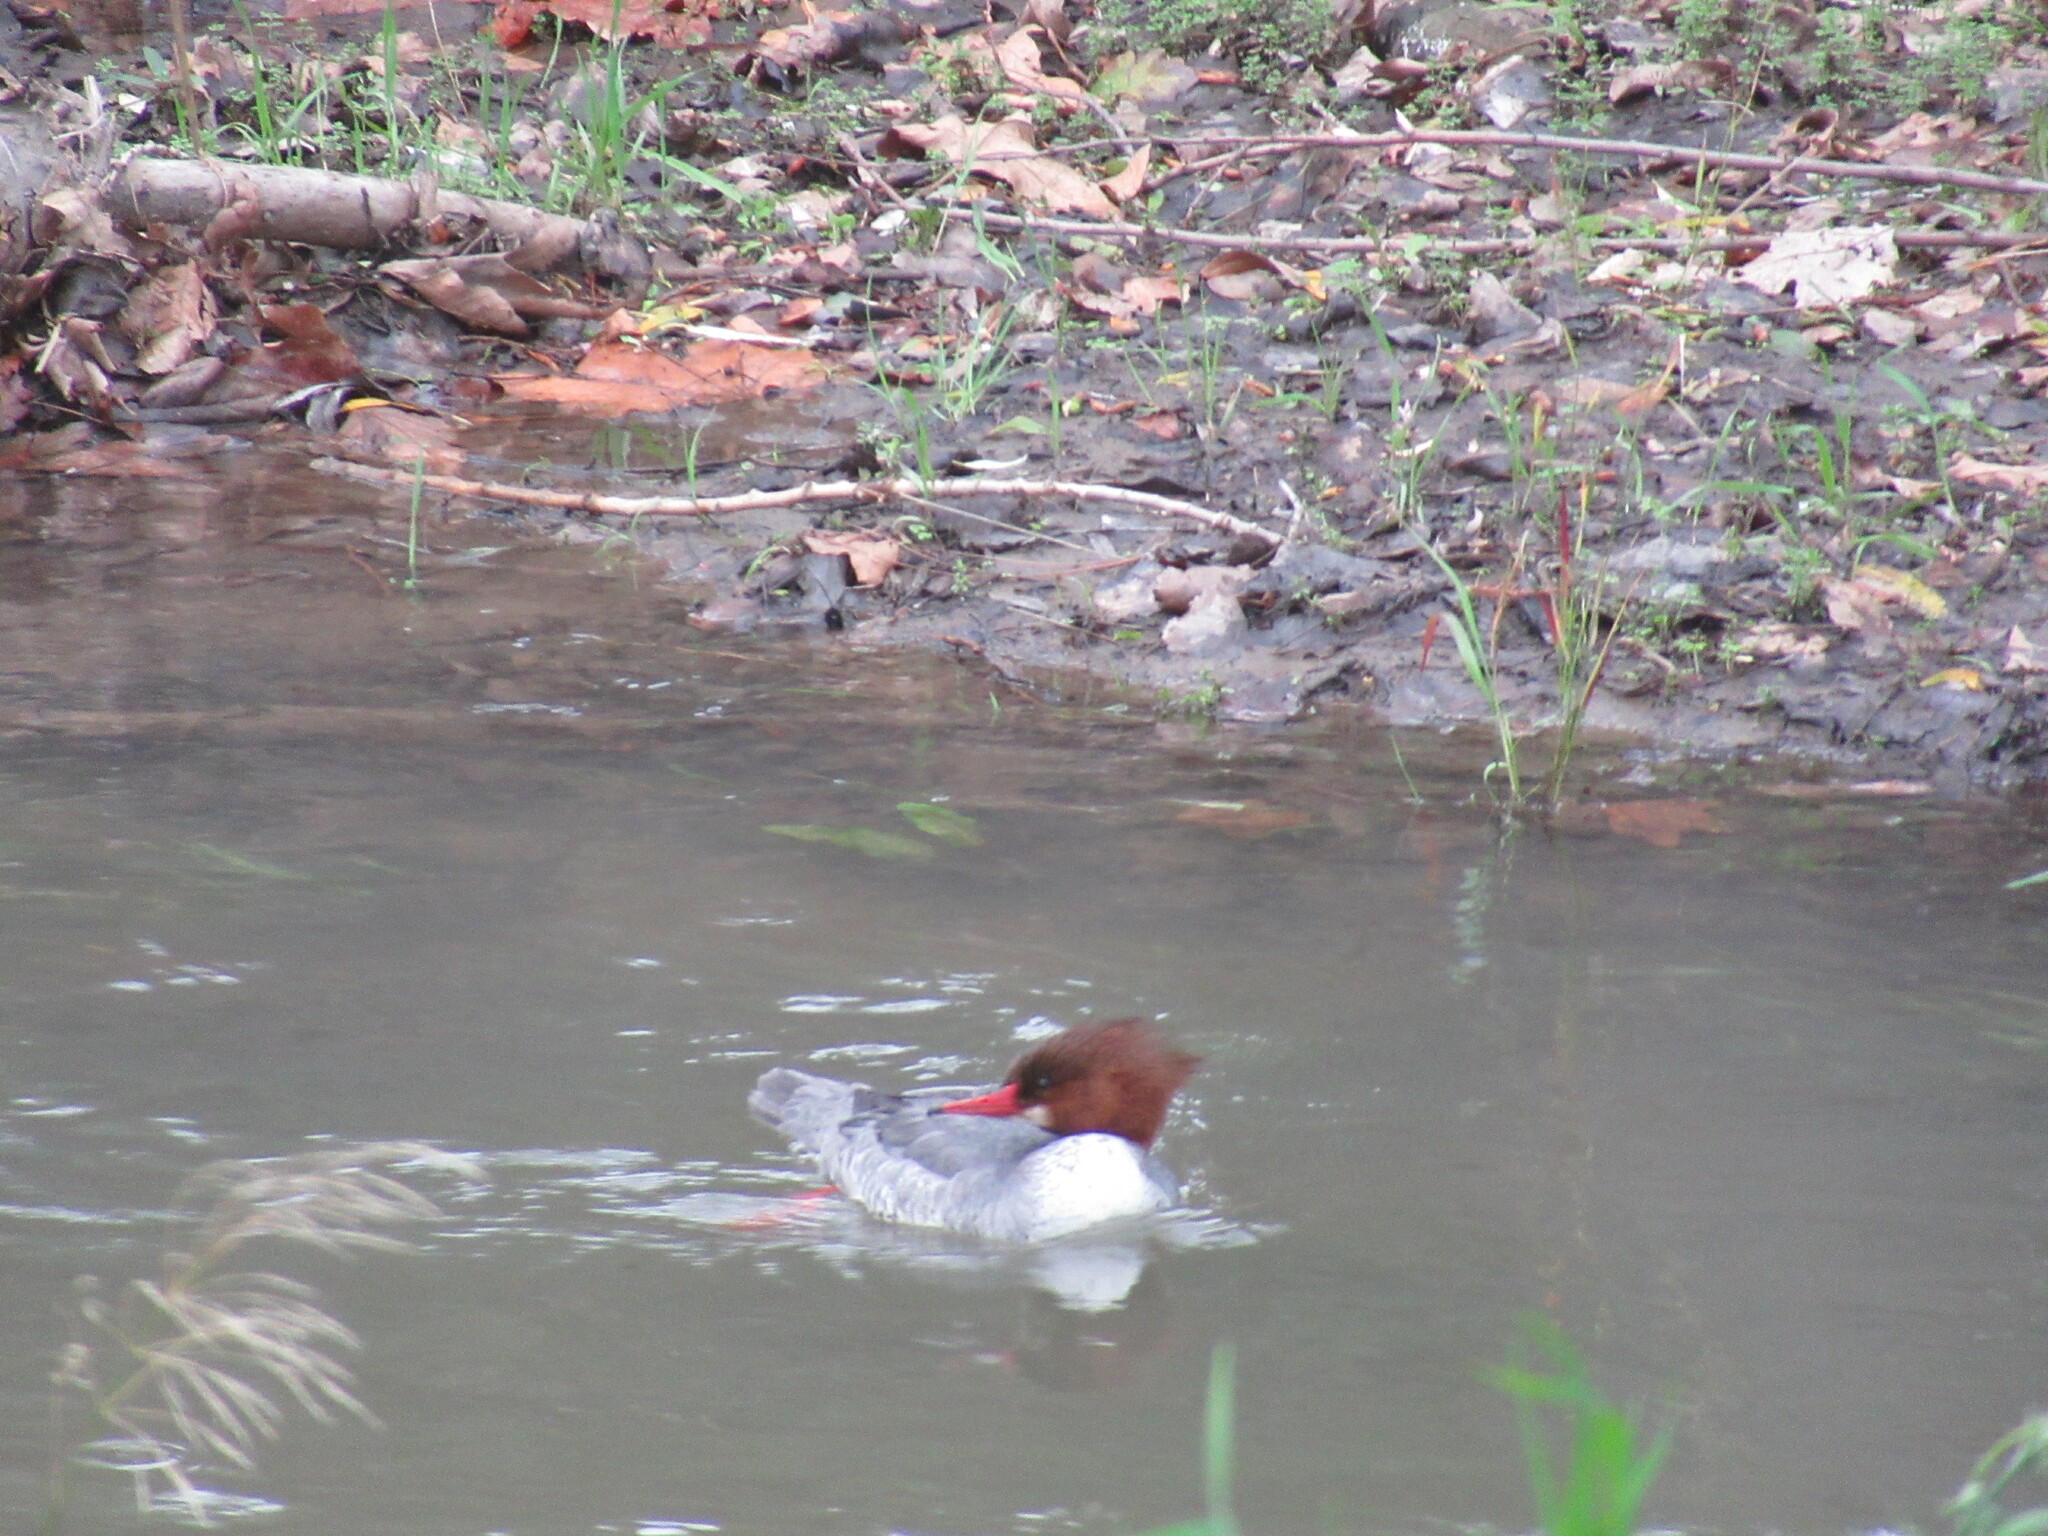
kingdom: Animalia
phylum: Chordata
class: Aves
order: Anseriformes
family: Anatidae
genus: Mergus
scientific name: Mergus merganser
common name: Common merganser
